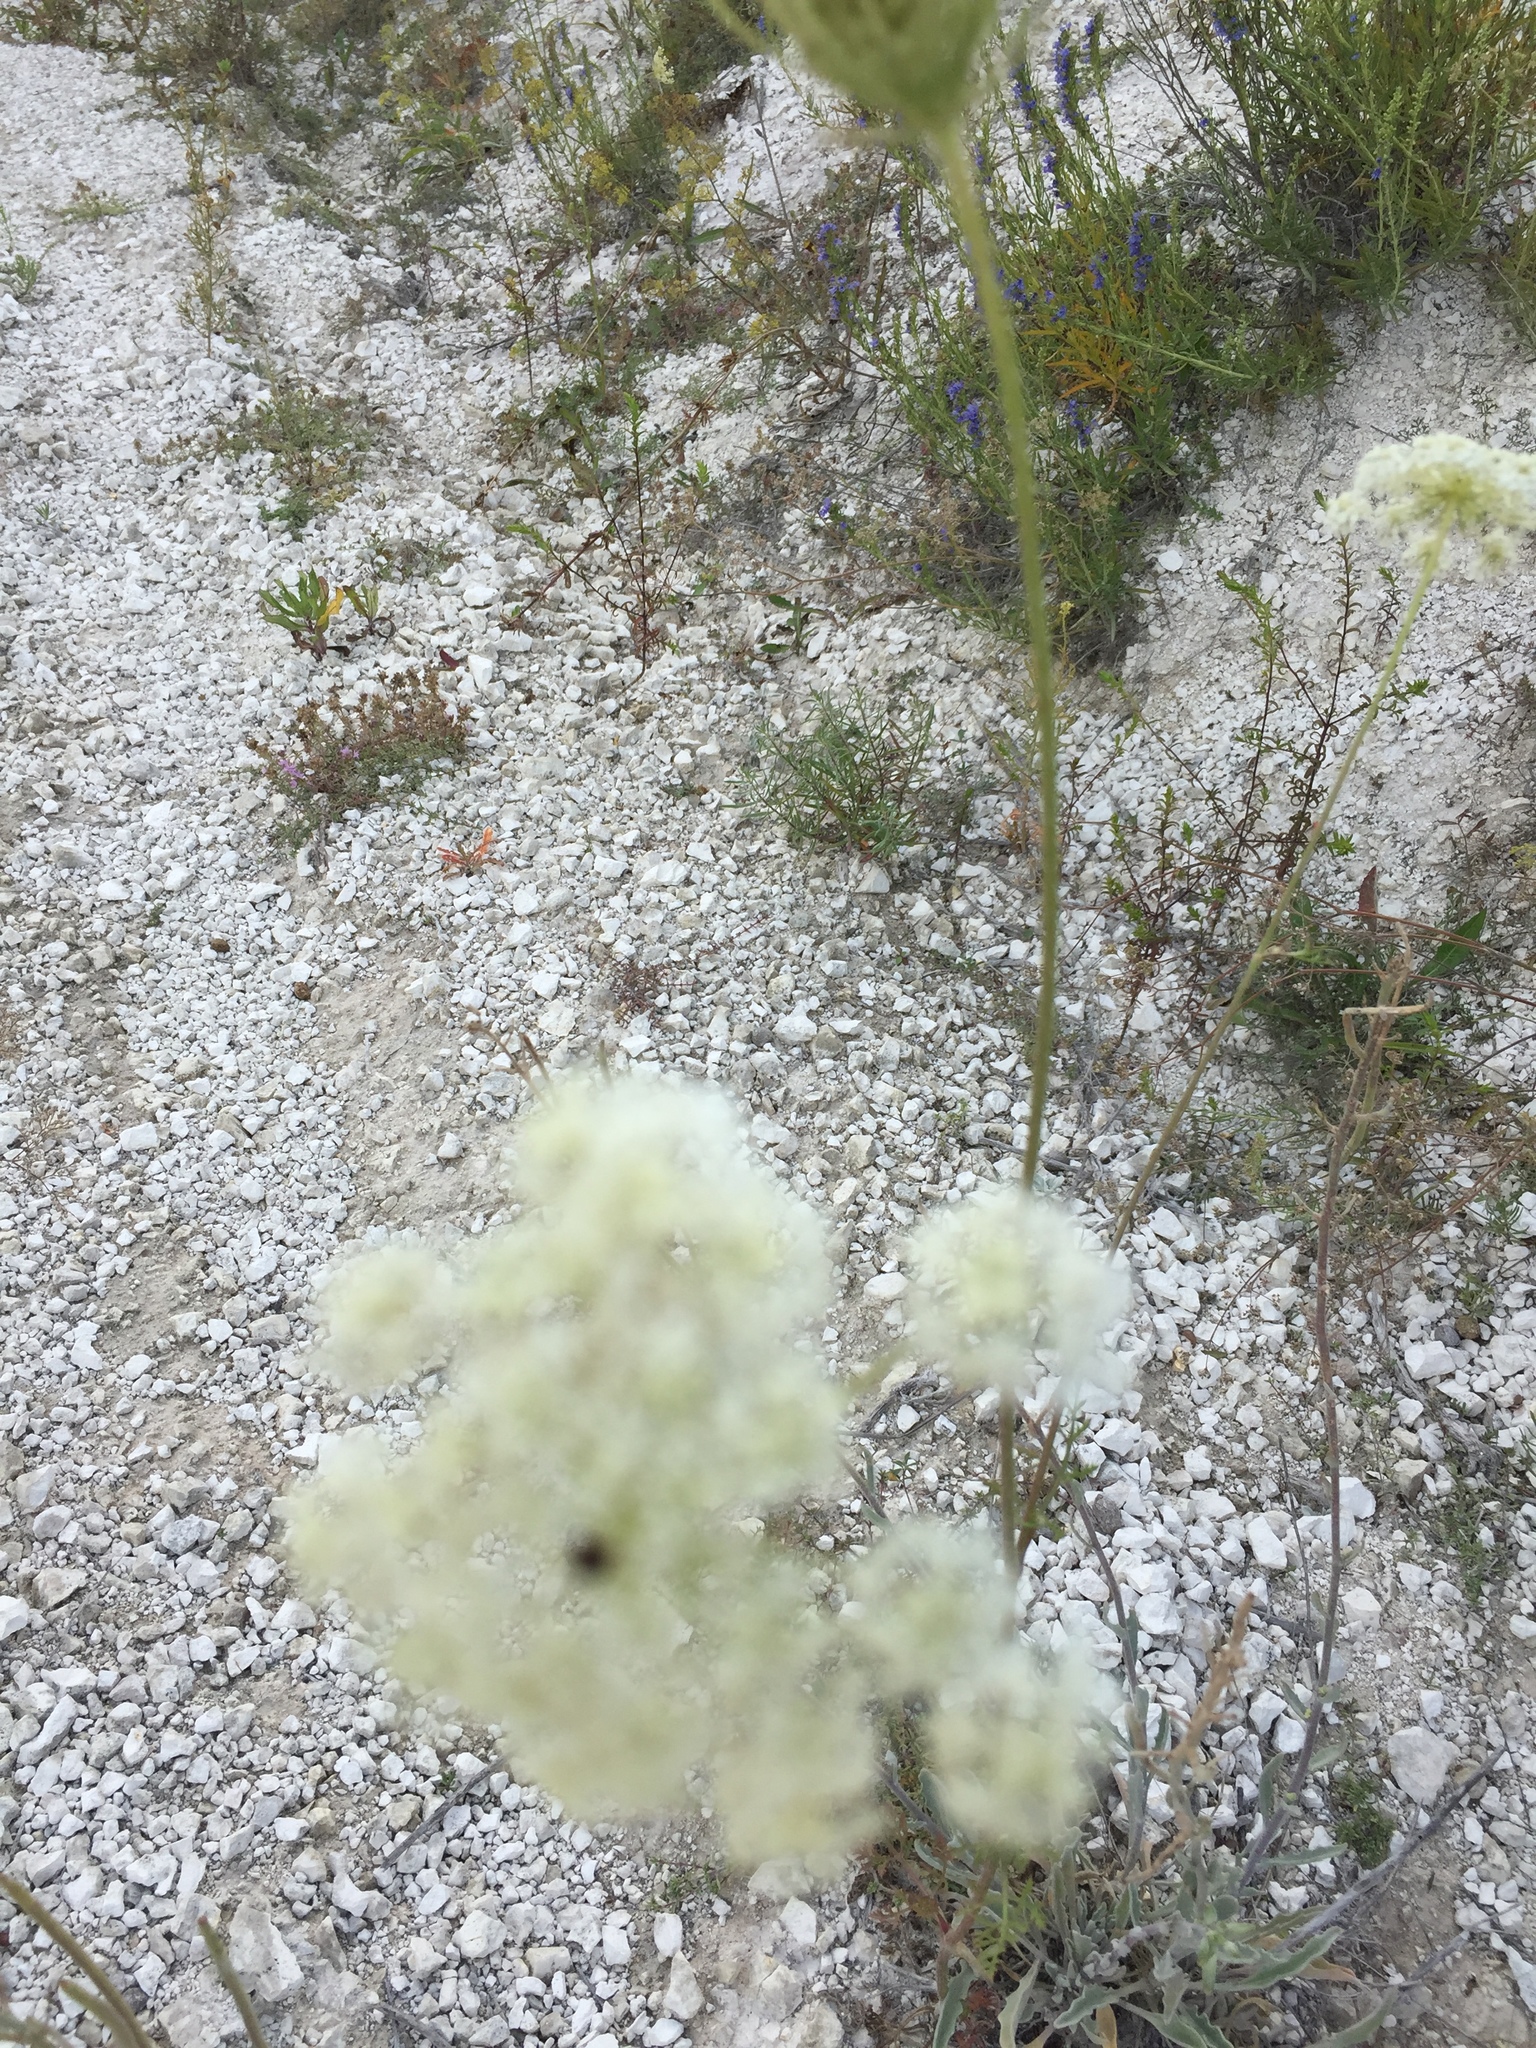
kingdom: Plantae
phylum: Tracheophyta
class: Magnoliopsida
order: Apiales
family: Apiaceae
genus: Daucus
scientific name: Daucus carota
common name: Wild carrot
